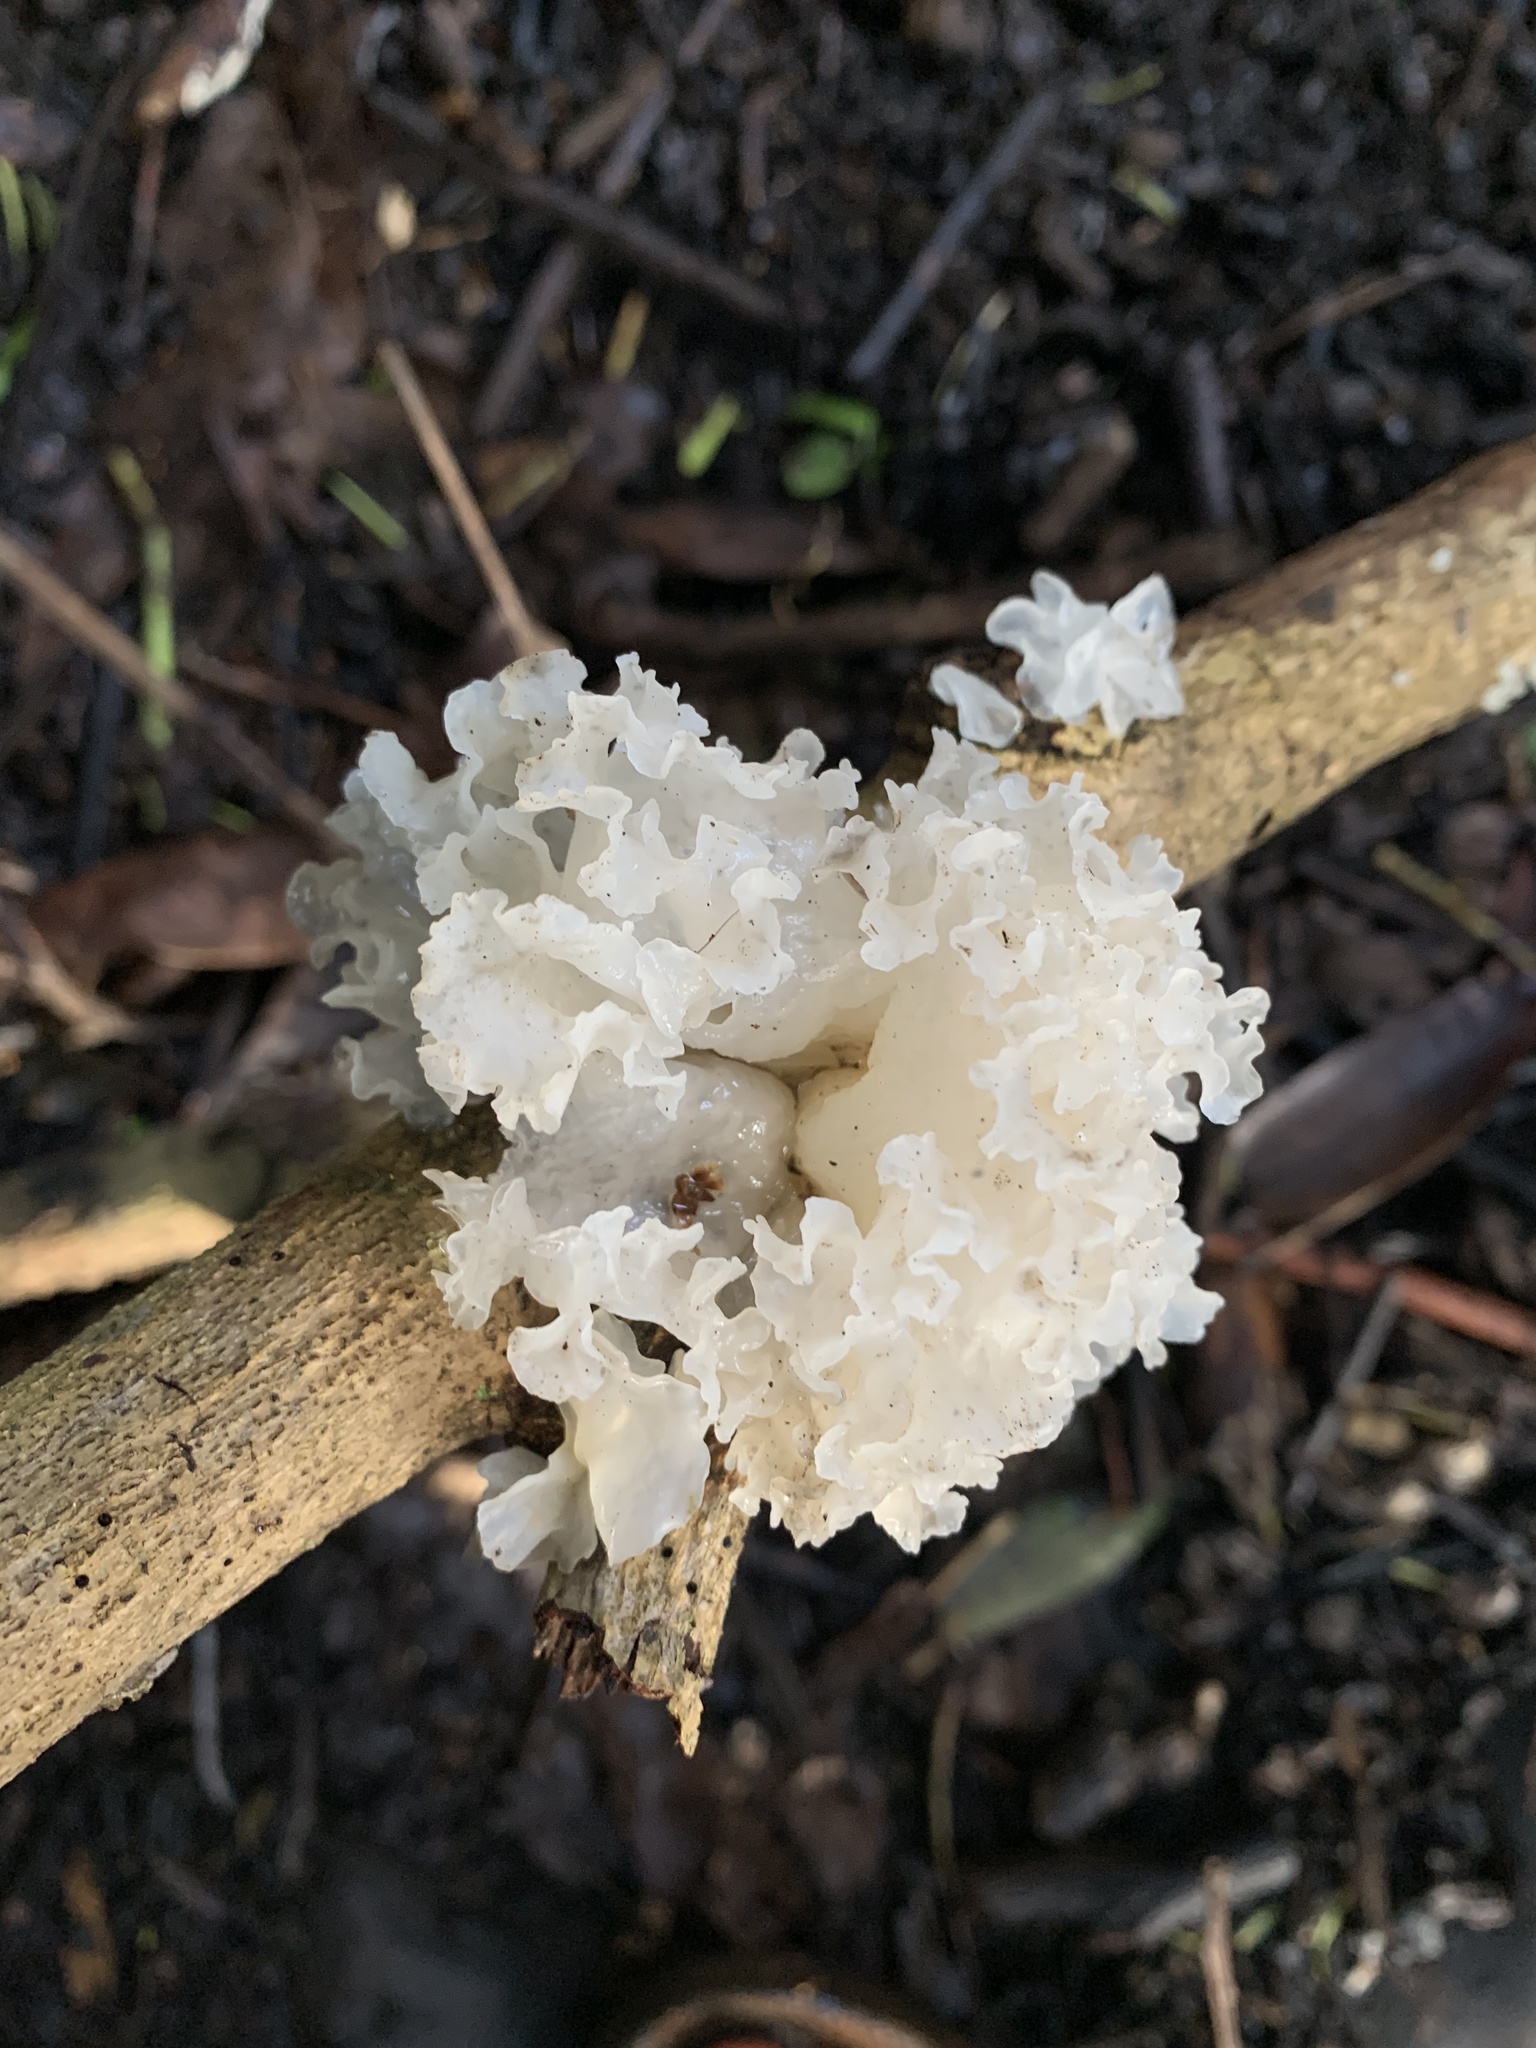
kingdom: Fungi
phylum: Basidiomycota
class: Tremellomycetes
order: Tremellales
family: Tremellaceae
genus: Tremella
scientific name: Tremella fuciformis
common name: Snow fungus
